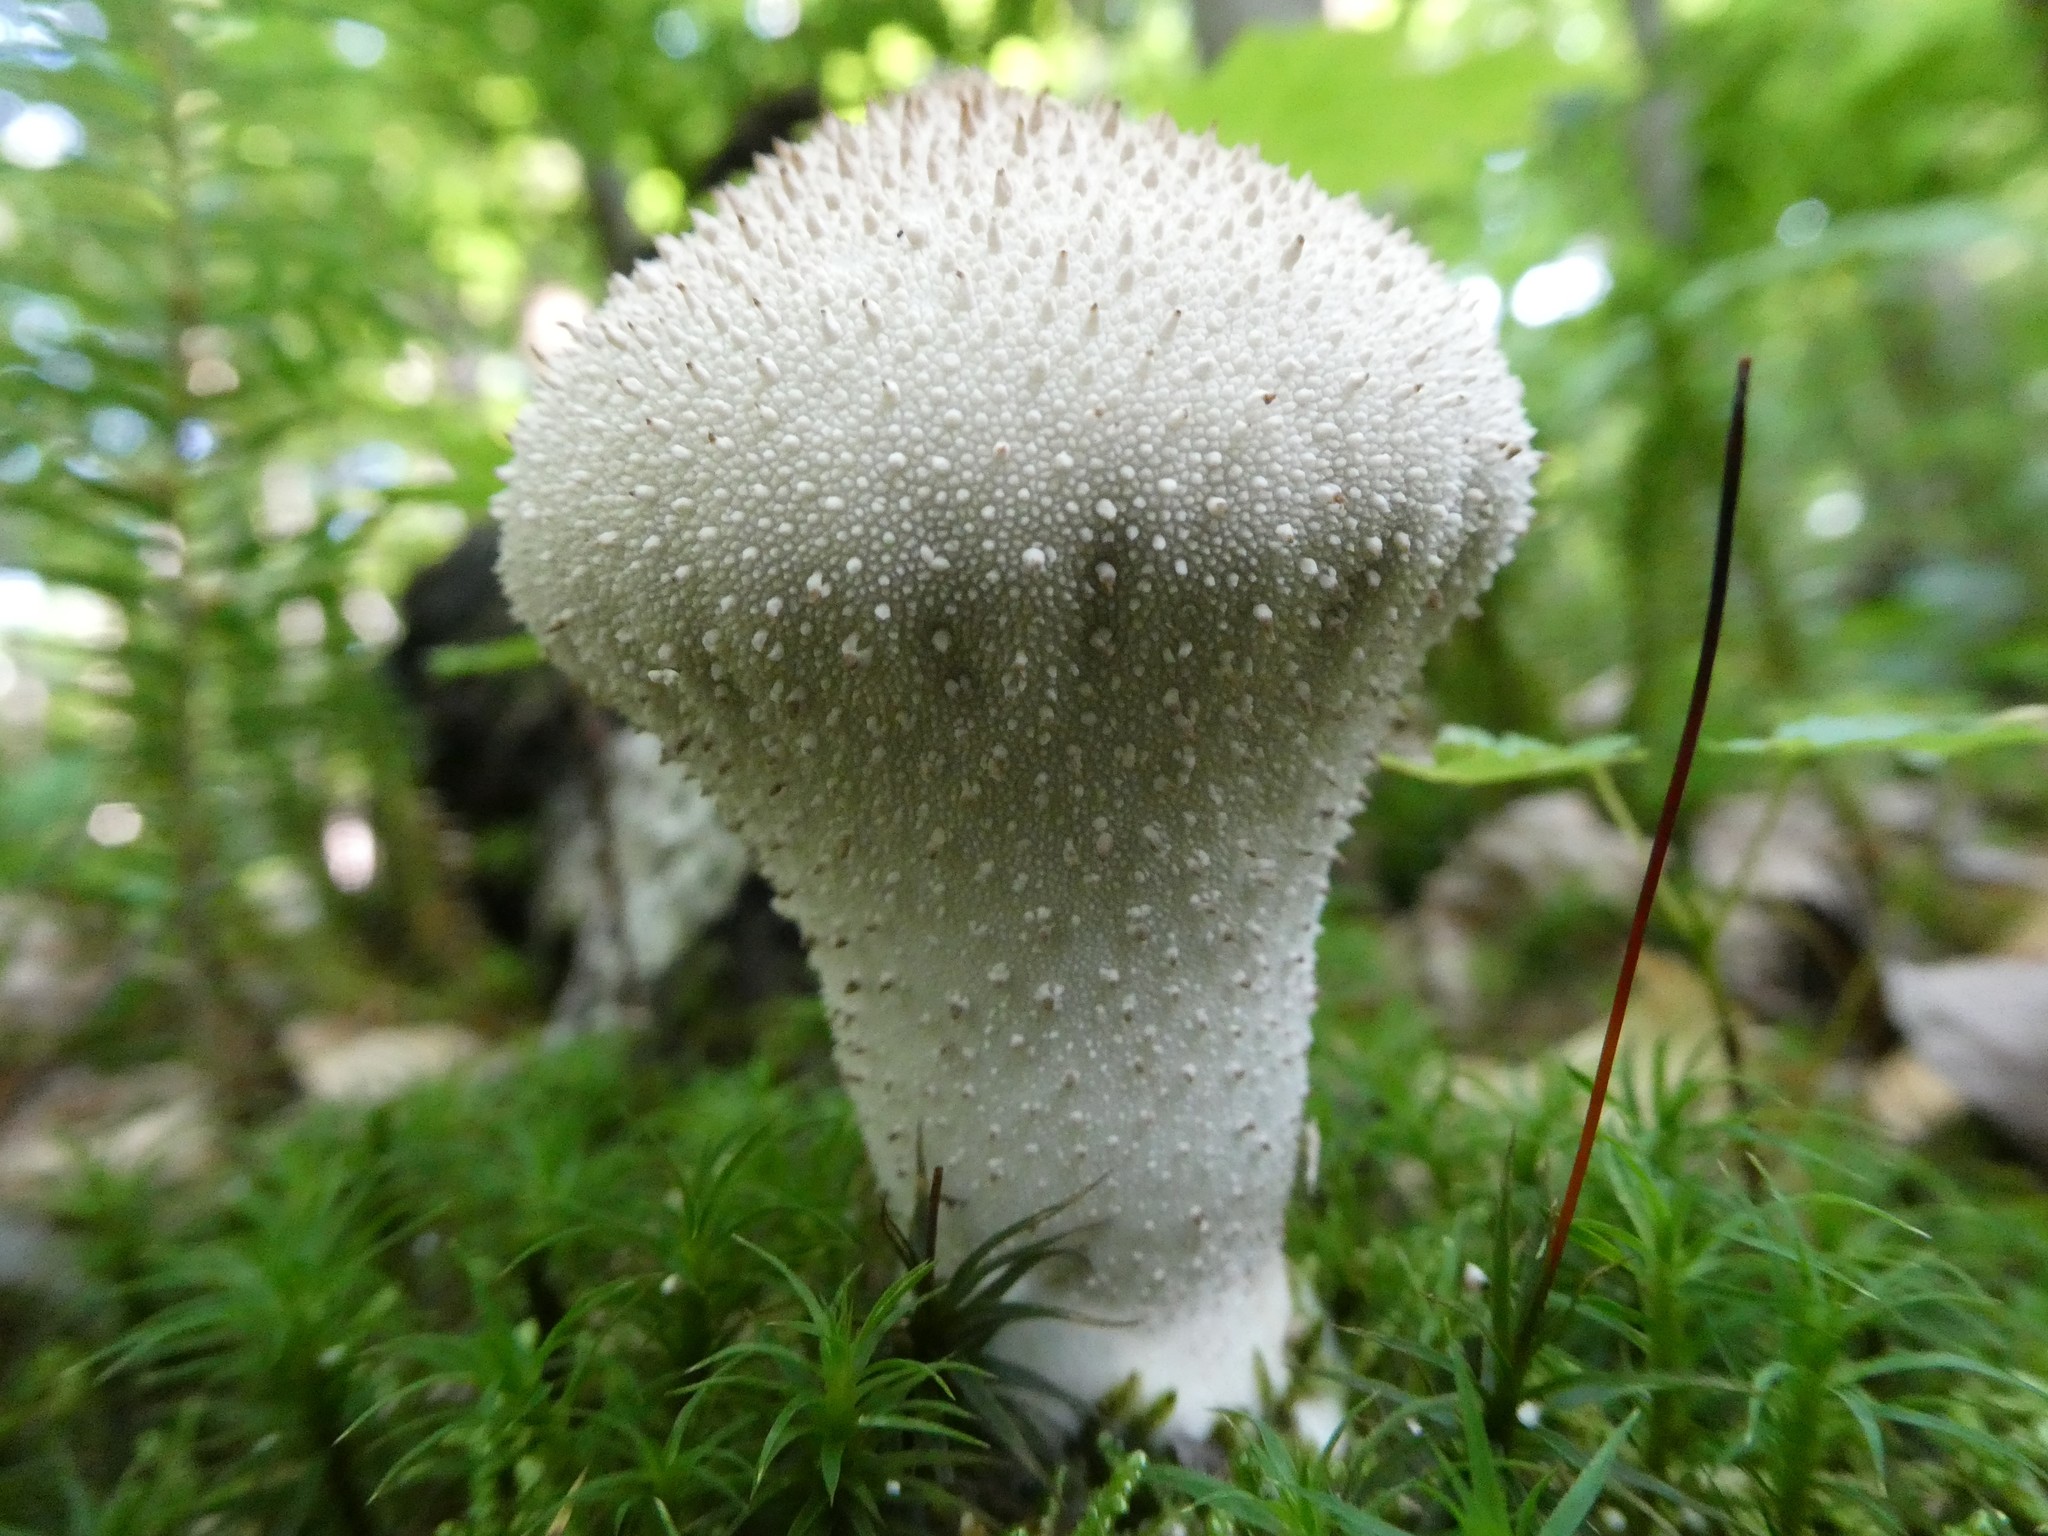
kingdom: Fungi
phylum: Basidiomycota
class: Agaricomycetes
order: Agaricales
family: Lycoperdaceae
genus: Lycoperdon
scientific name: Lycoperdon perlatum
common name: Common puffball
